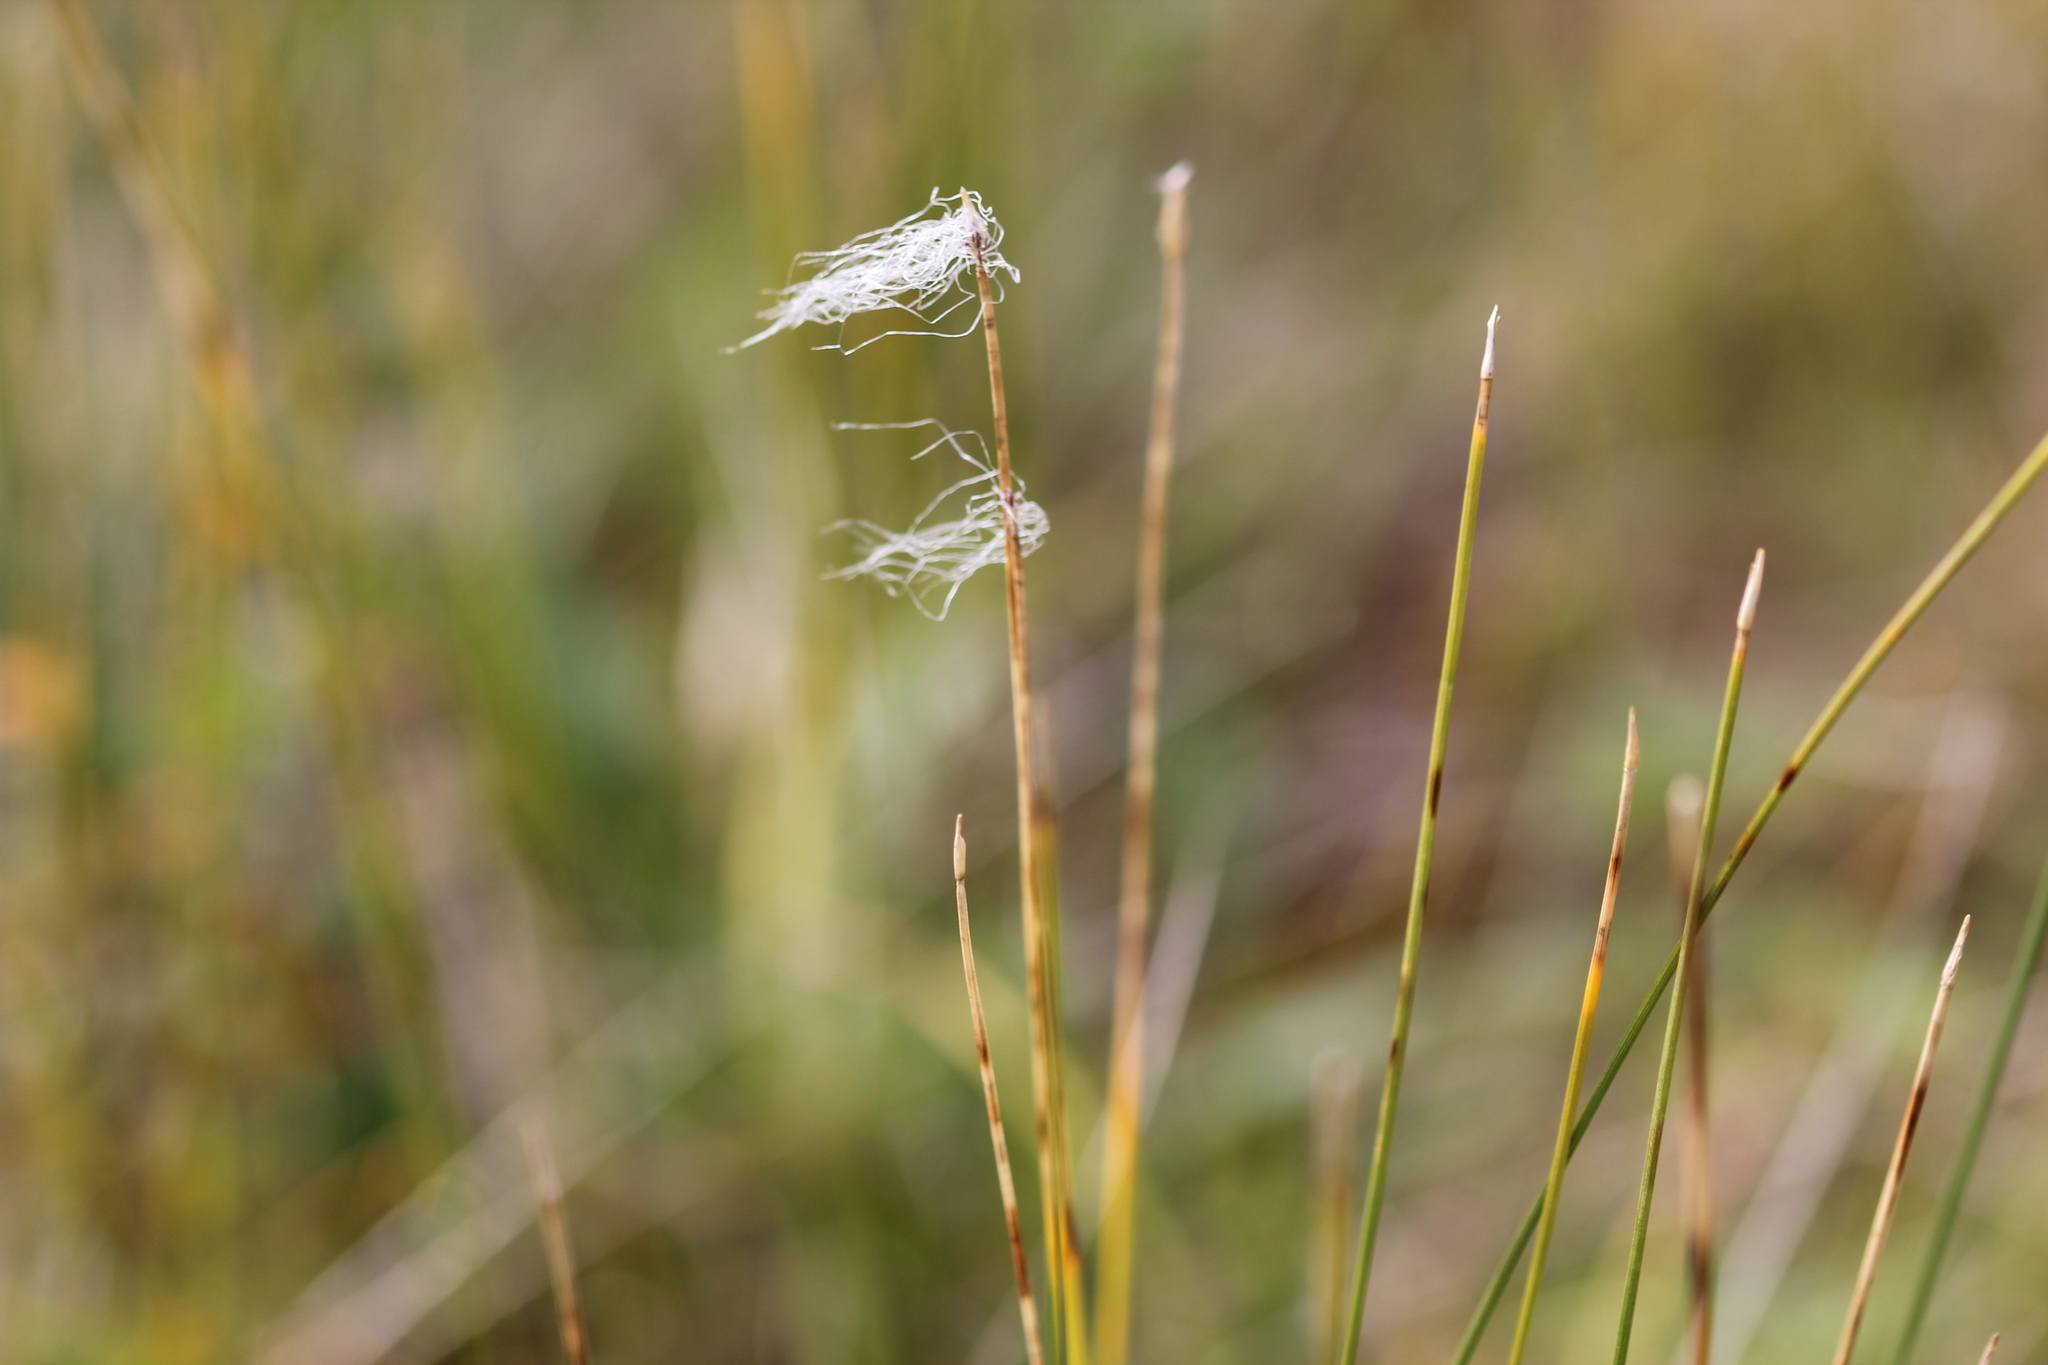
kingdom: Plantae
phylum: Tracheophyta
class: Liliopsida
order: Poales
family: Cyperaceae
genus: Trichophorum
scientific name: Trichophorum alpinum
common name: Alpine bulrush
